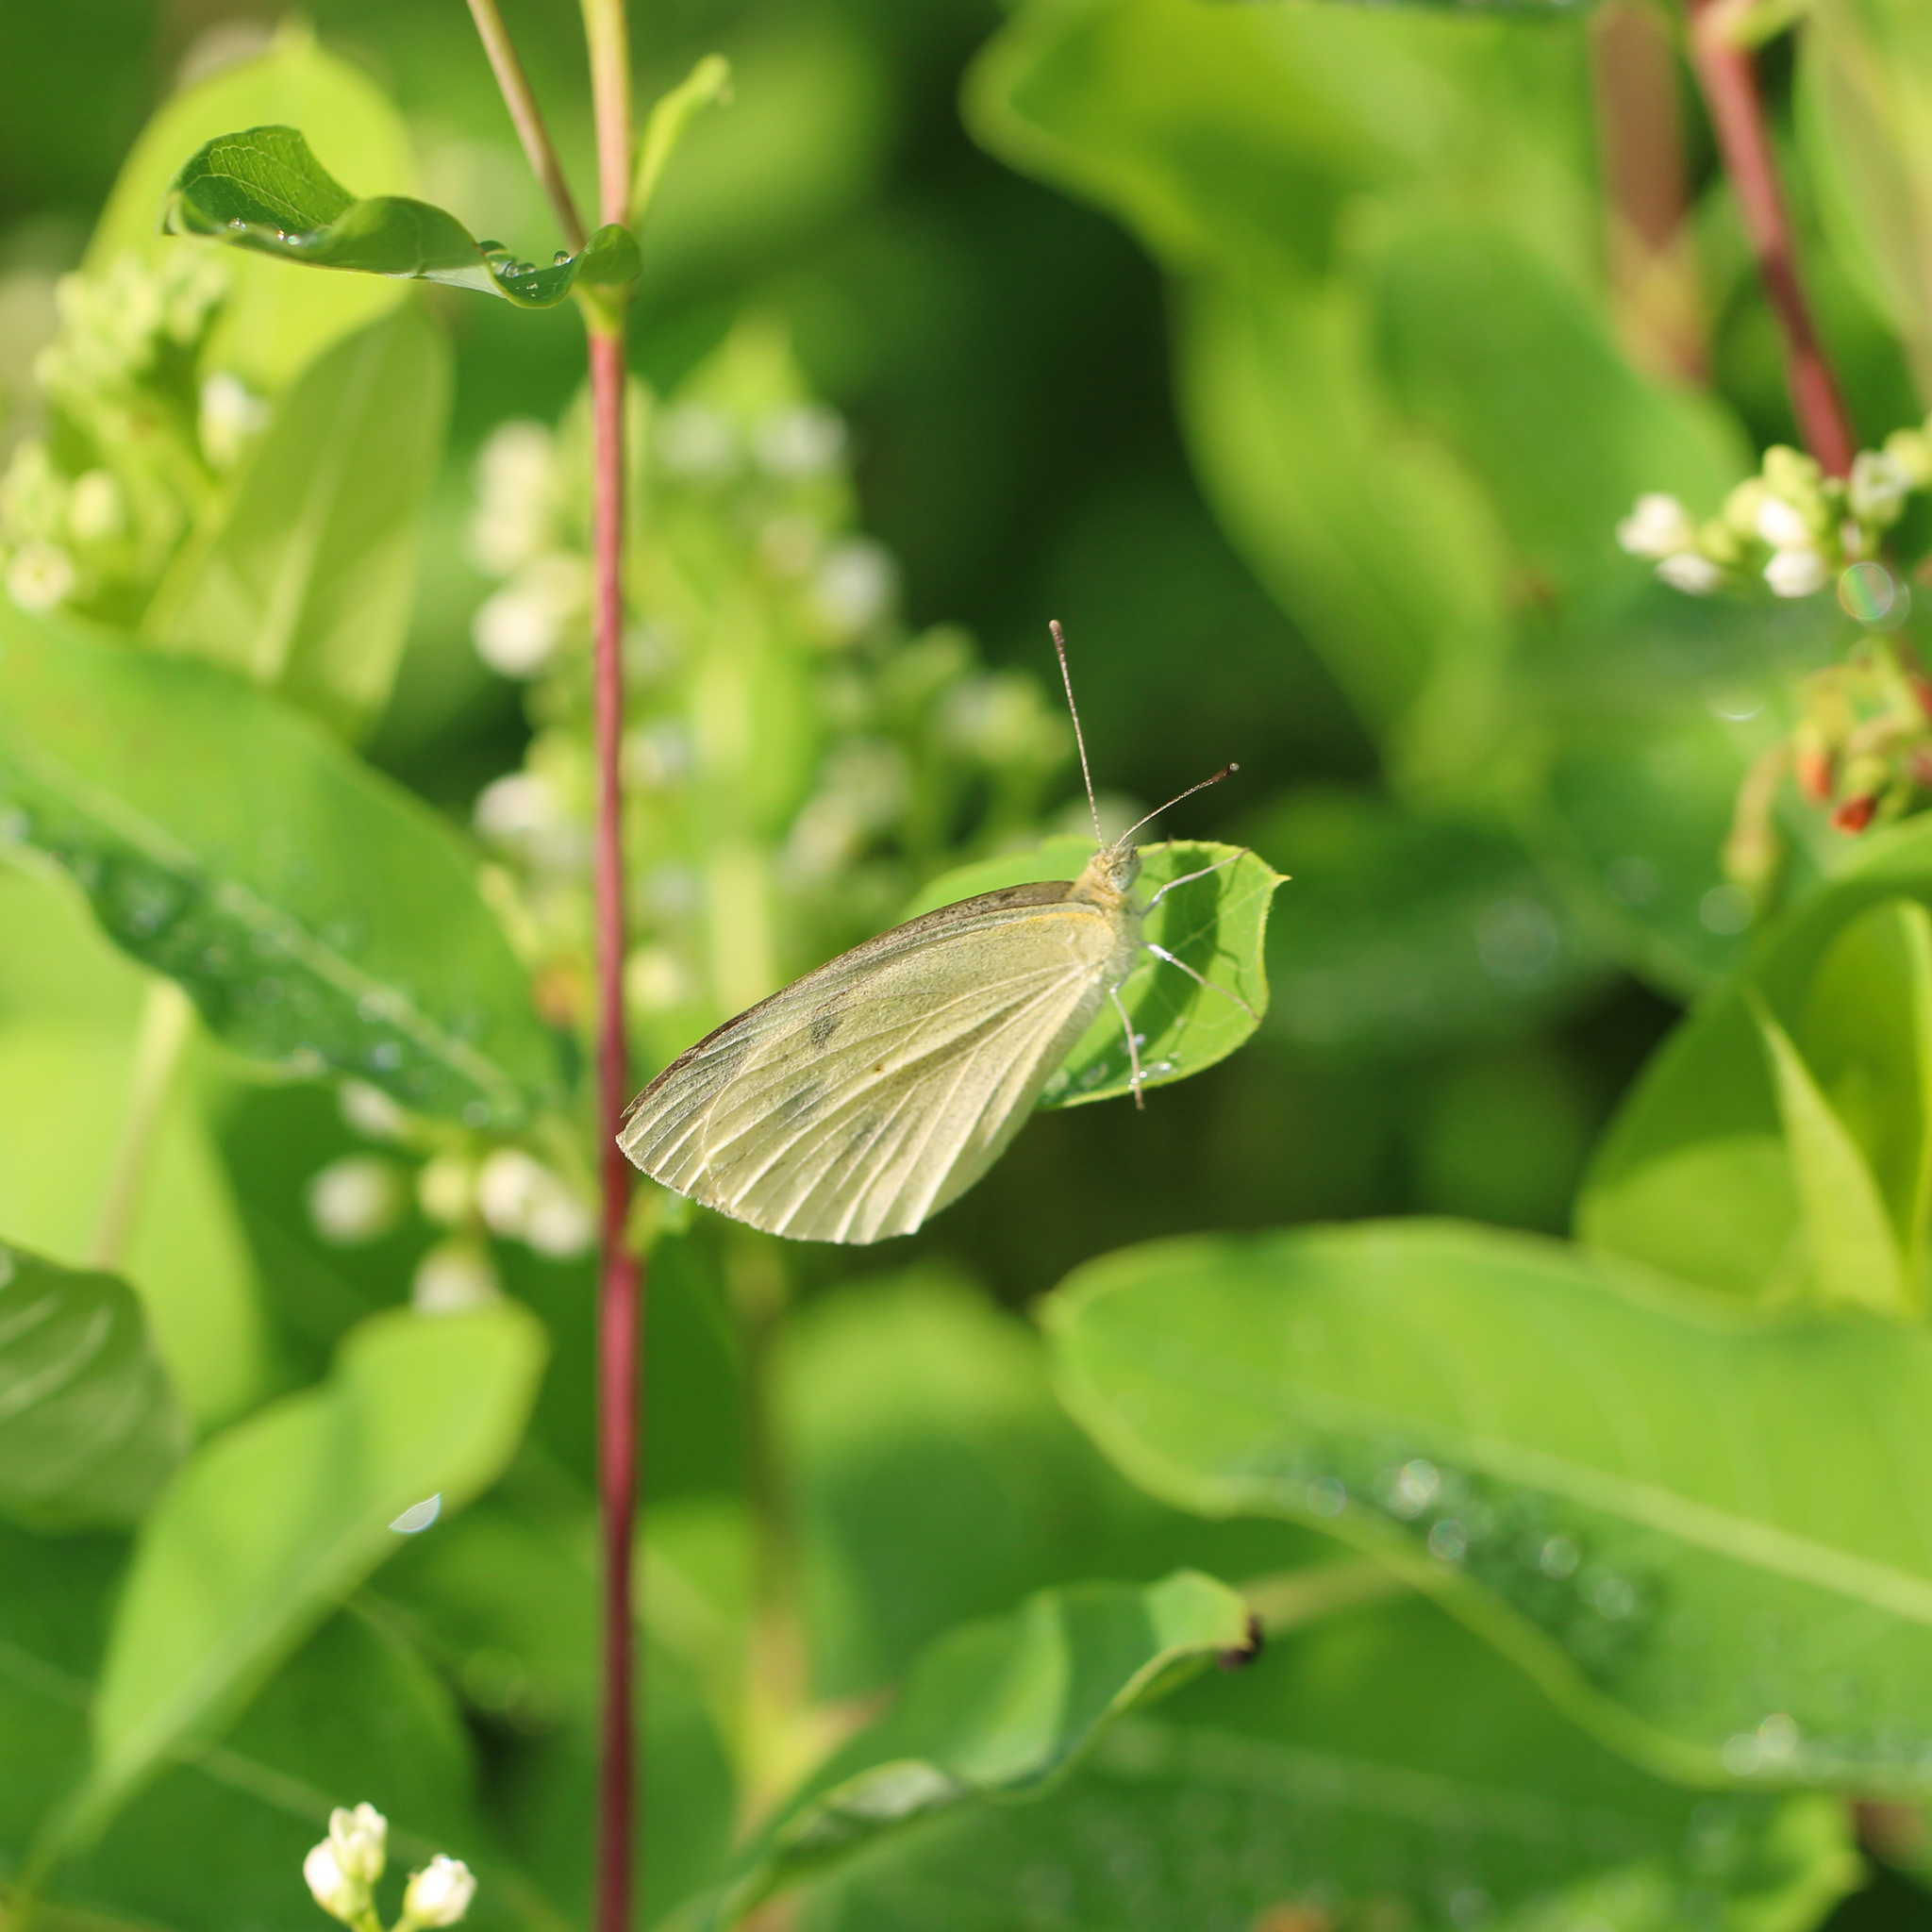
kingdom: Animalia
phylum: Arthropoda
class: Insecta
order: Lepidoptera
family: Pieridae
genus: Pieris
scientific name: Pieris rapae
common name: Small white
